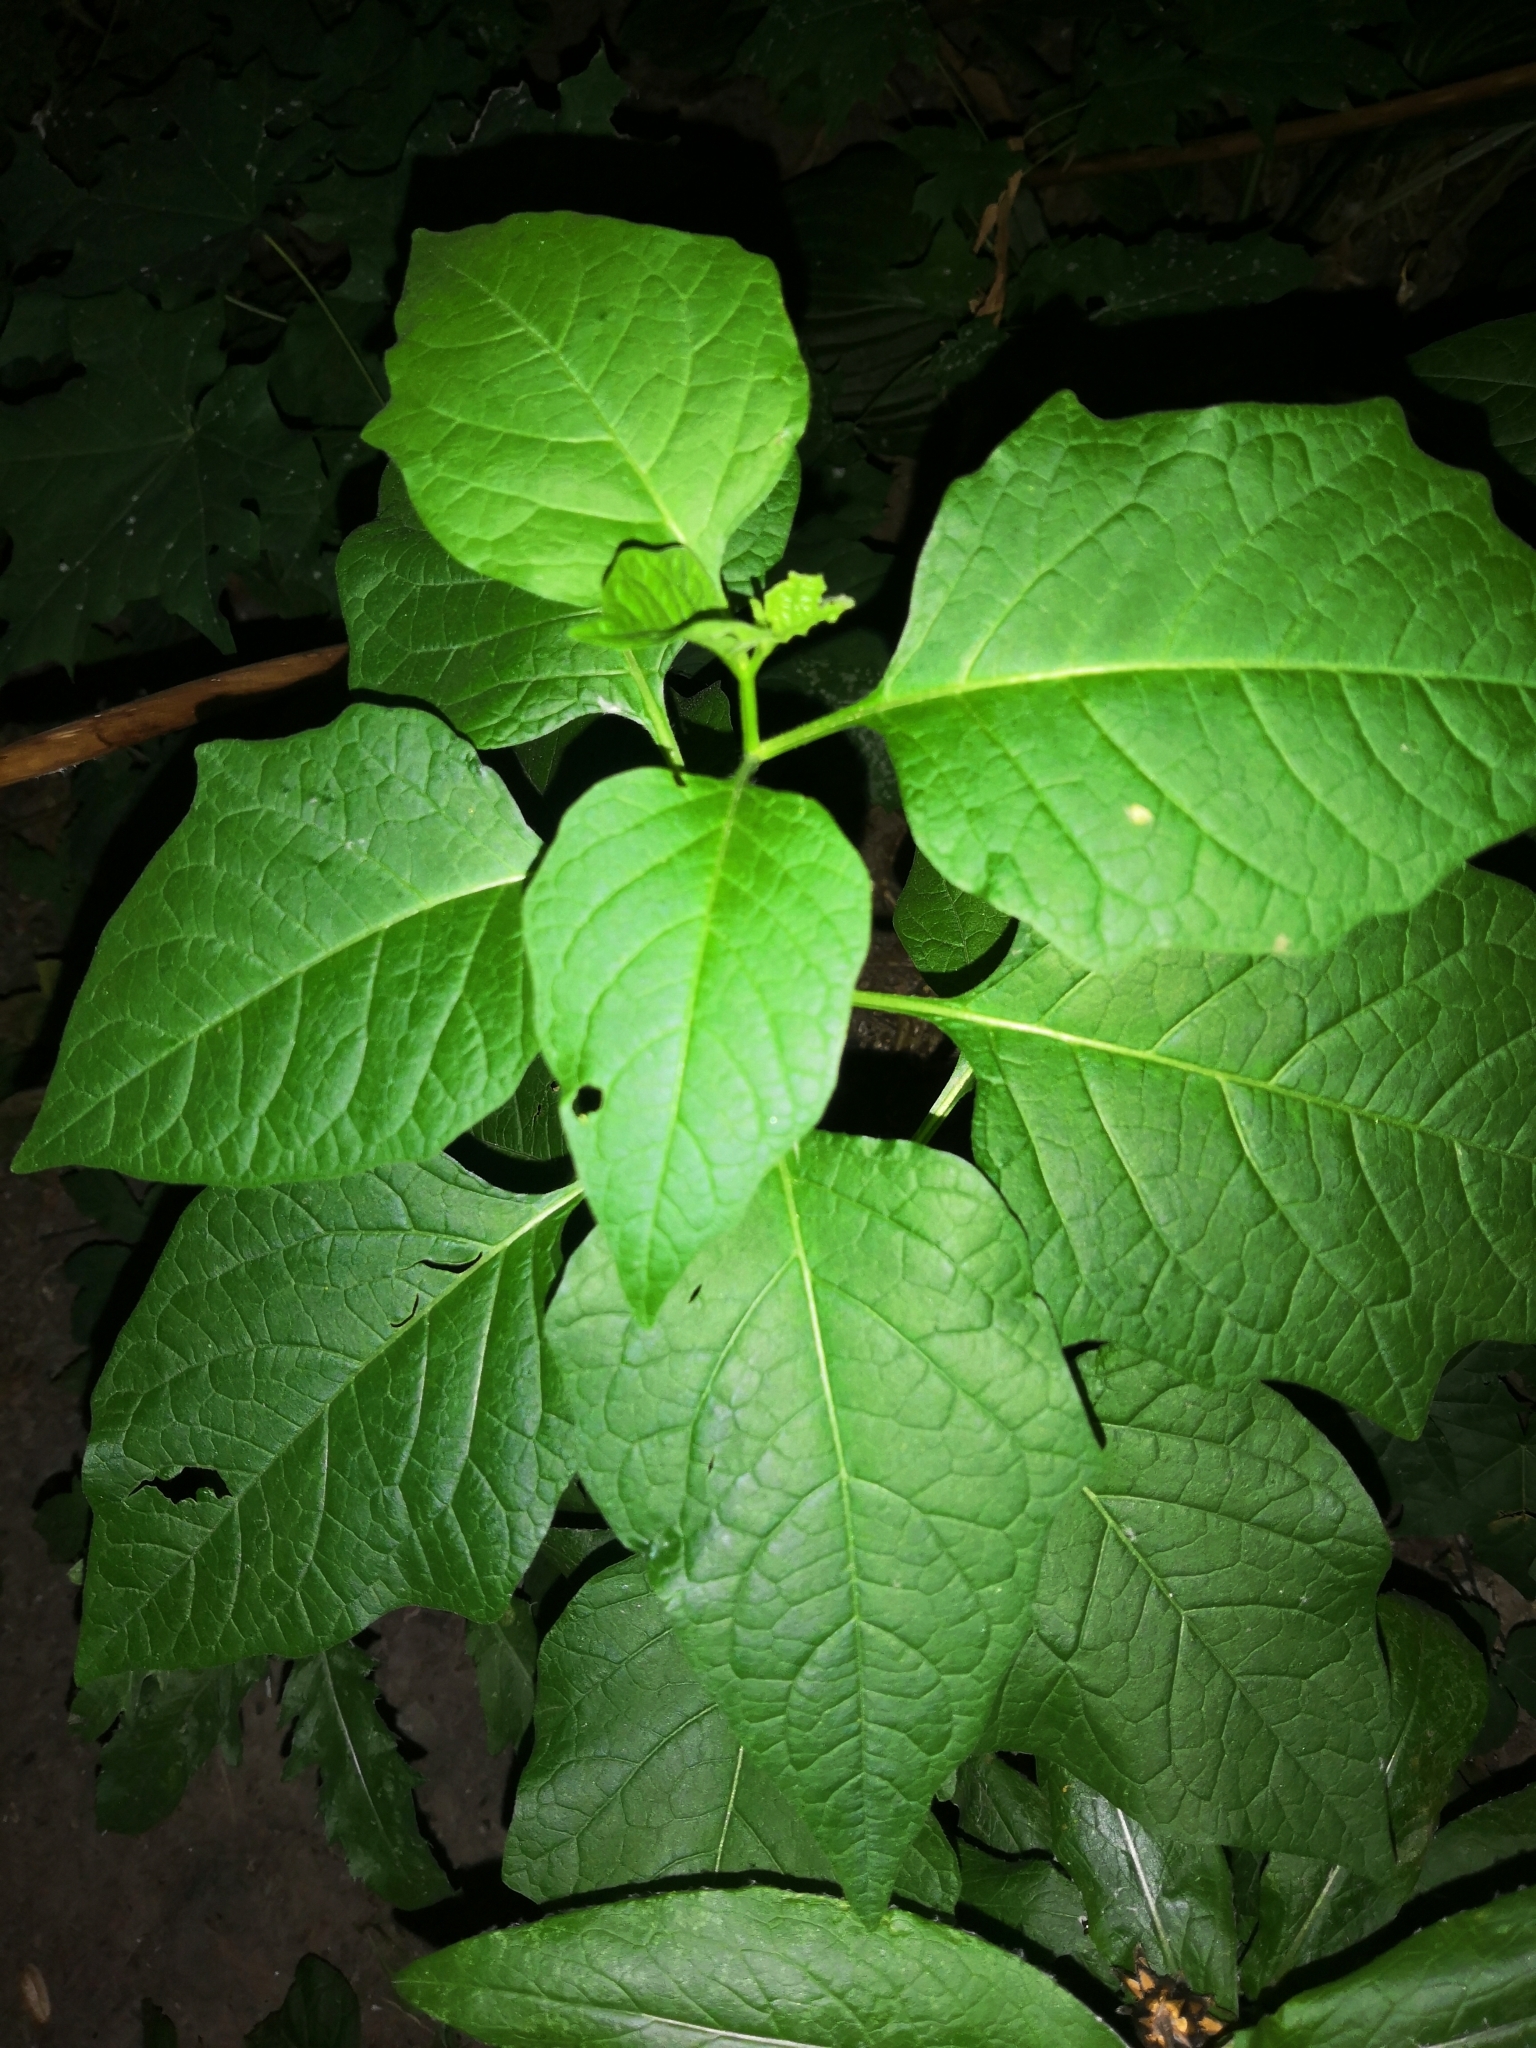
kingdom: Plantae
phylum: Tracheophyta
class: Magnoliopsida
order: Solanales
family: Solanaceae
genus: Alkekengi
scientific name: Alkekengi officinarum
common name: Japanese-lantern
